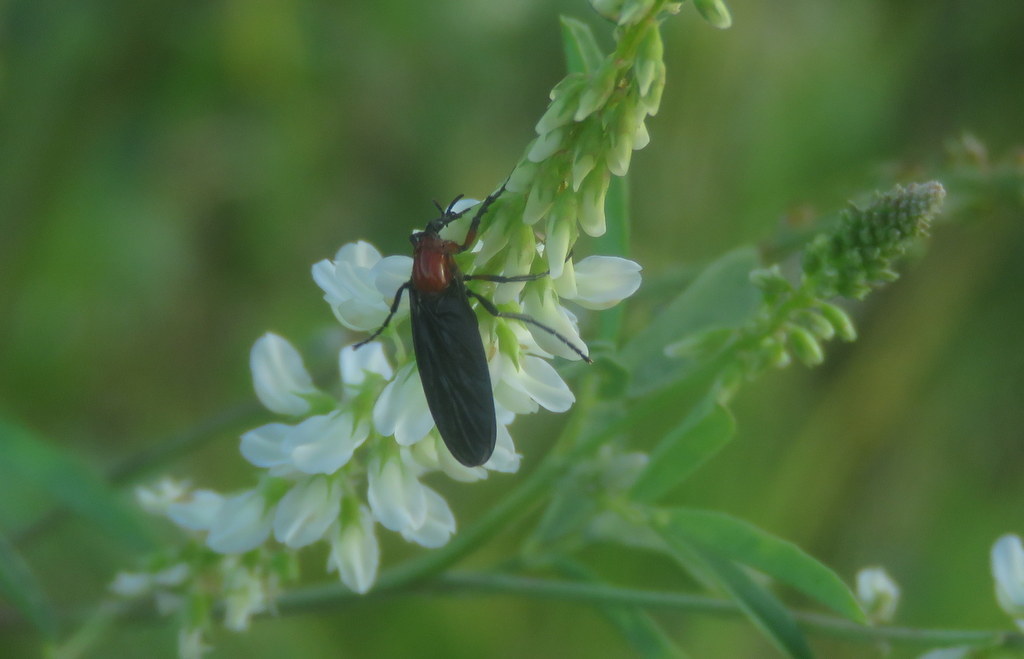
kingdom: Animalia
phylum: Arthropoda
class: Insecta
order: Diptera
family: Bibionidae
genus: Dilophus
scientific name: Dilophus pectoralis
